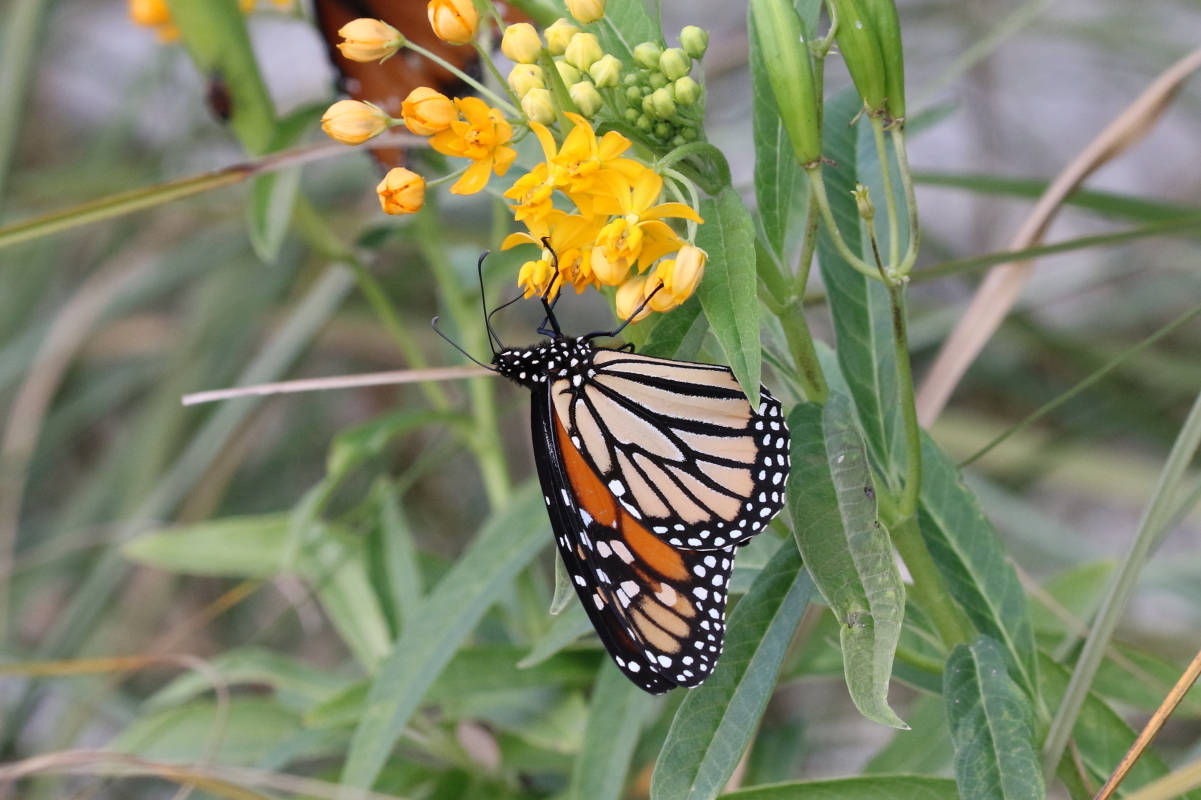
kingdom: Animalia
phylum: Arthropoda
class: Insecta
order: Lepidoptera
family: Nymphalidae
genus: Danaus
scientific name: Danaus plexippus
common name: Monarch
